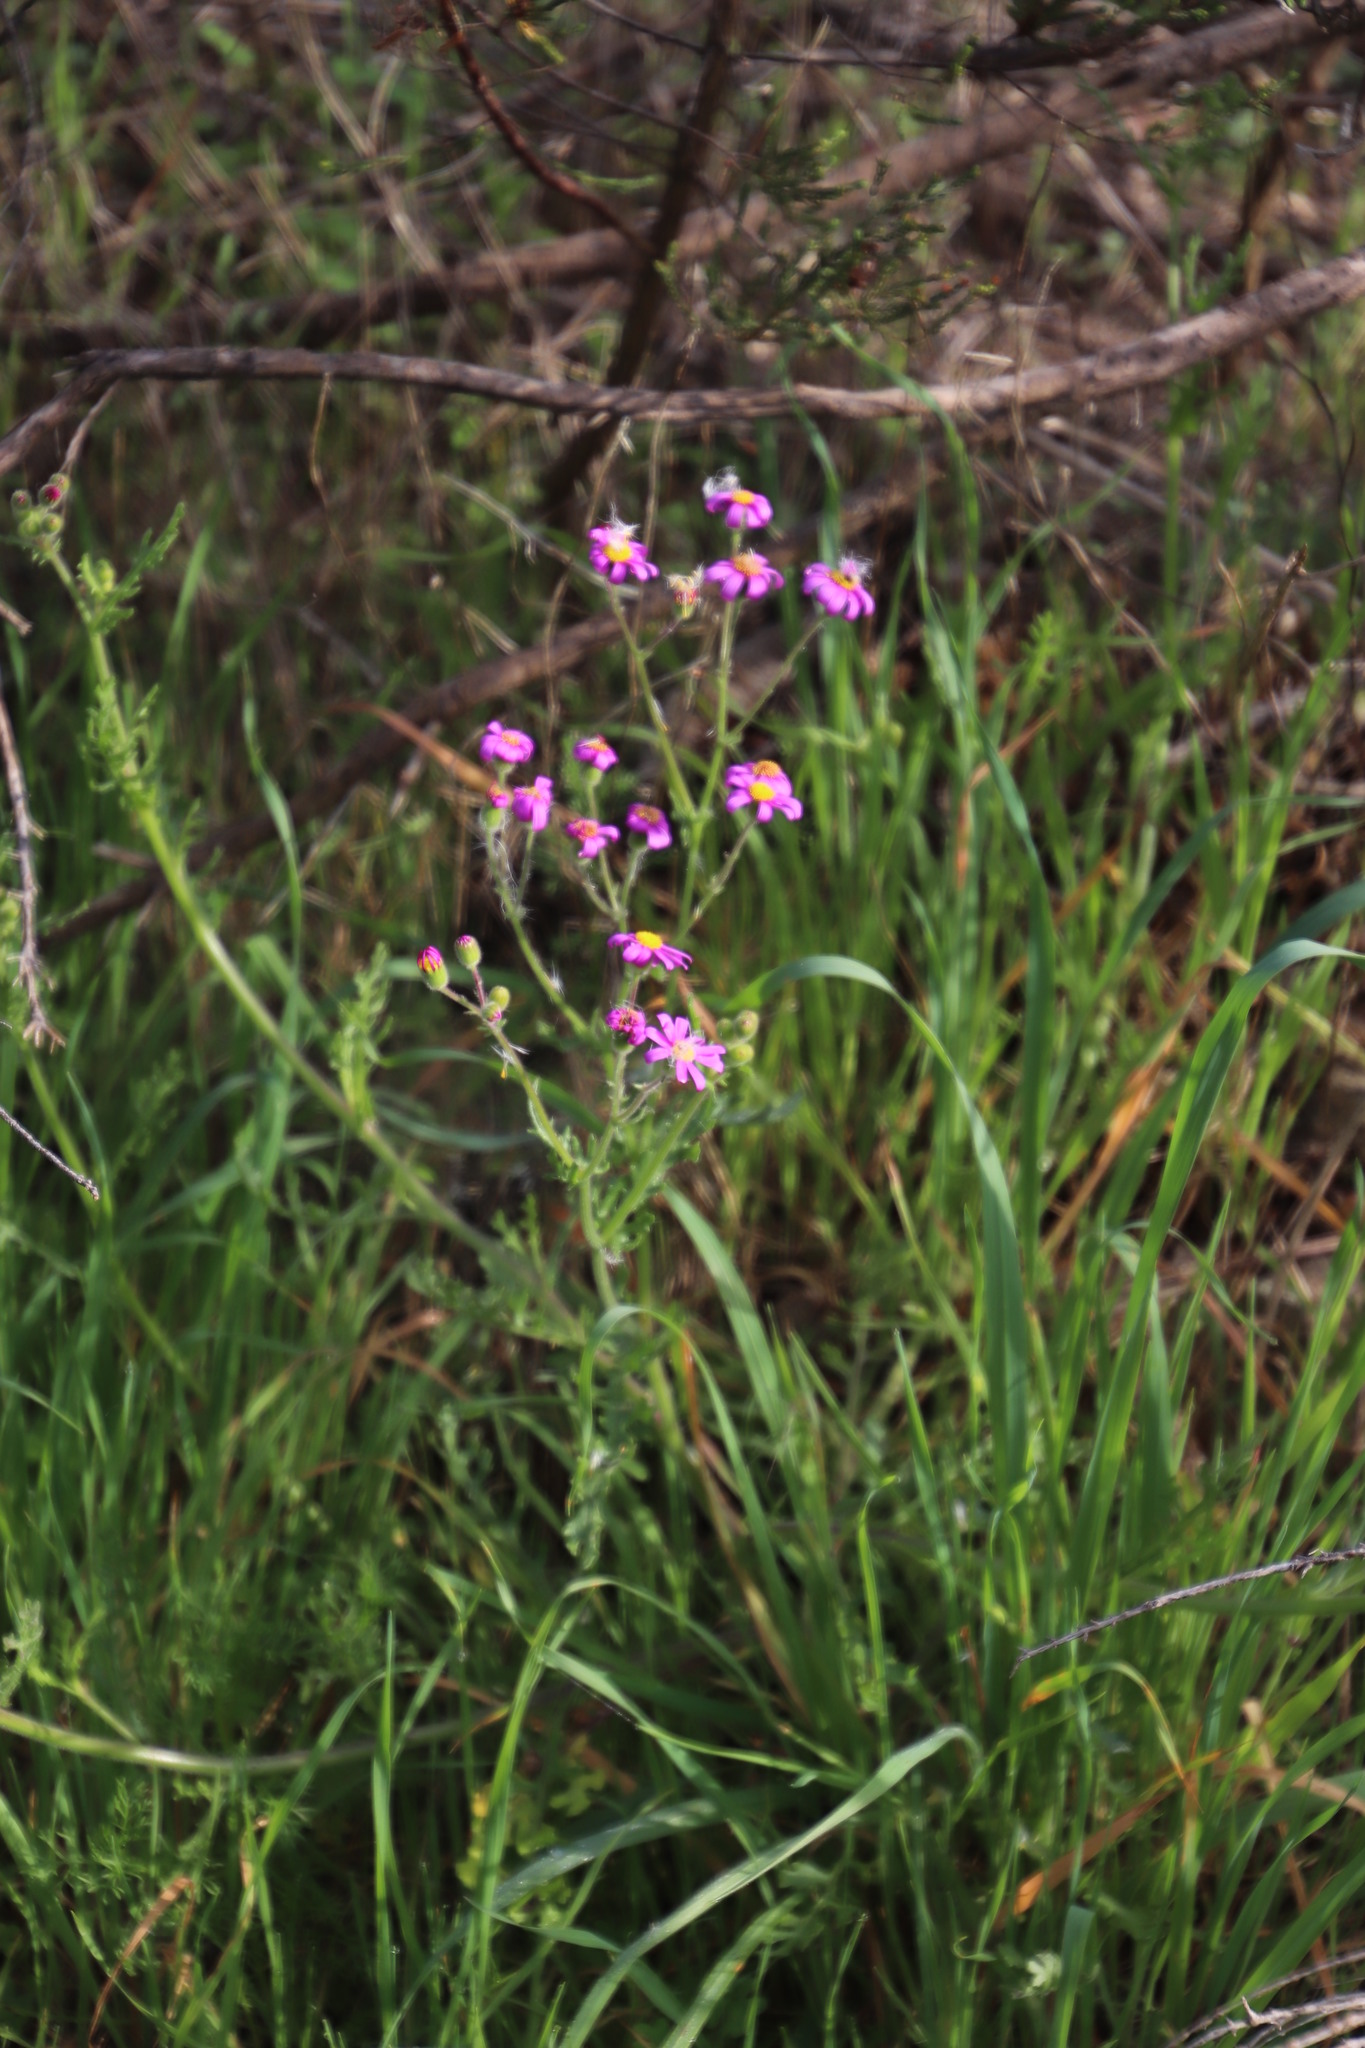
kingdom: Plantae
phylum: Tracheophyta
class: Magnoliopsida
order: Asterales
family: Asteraceae
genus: Senecio
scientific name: Senecio arenarius
